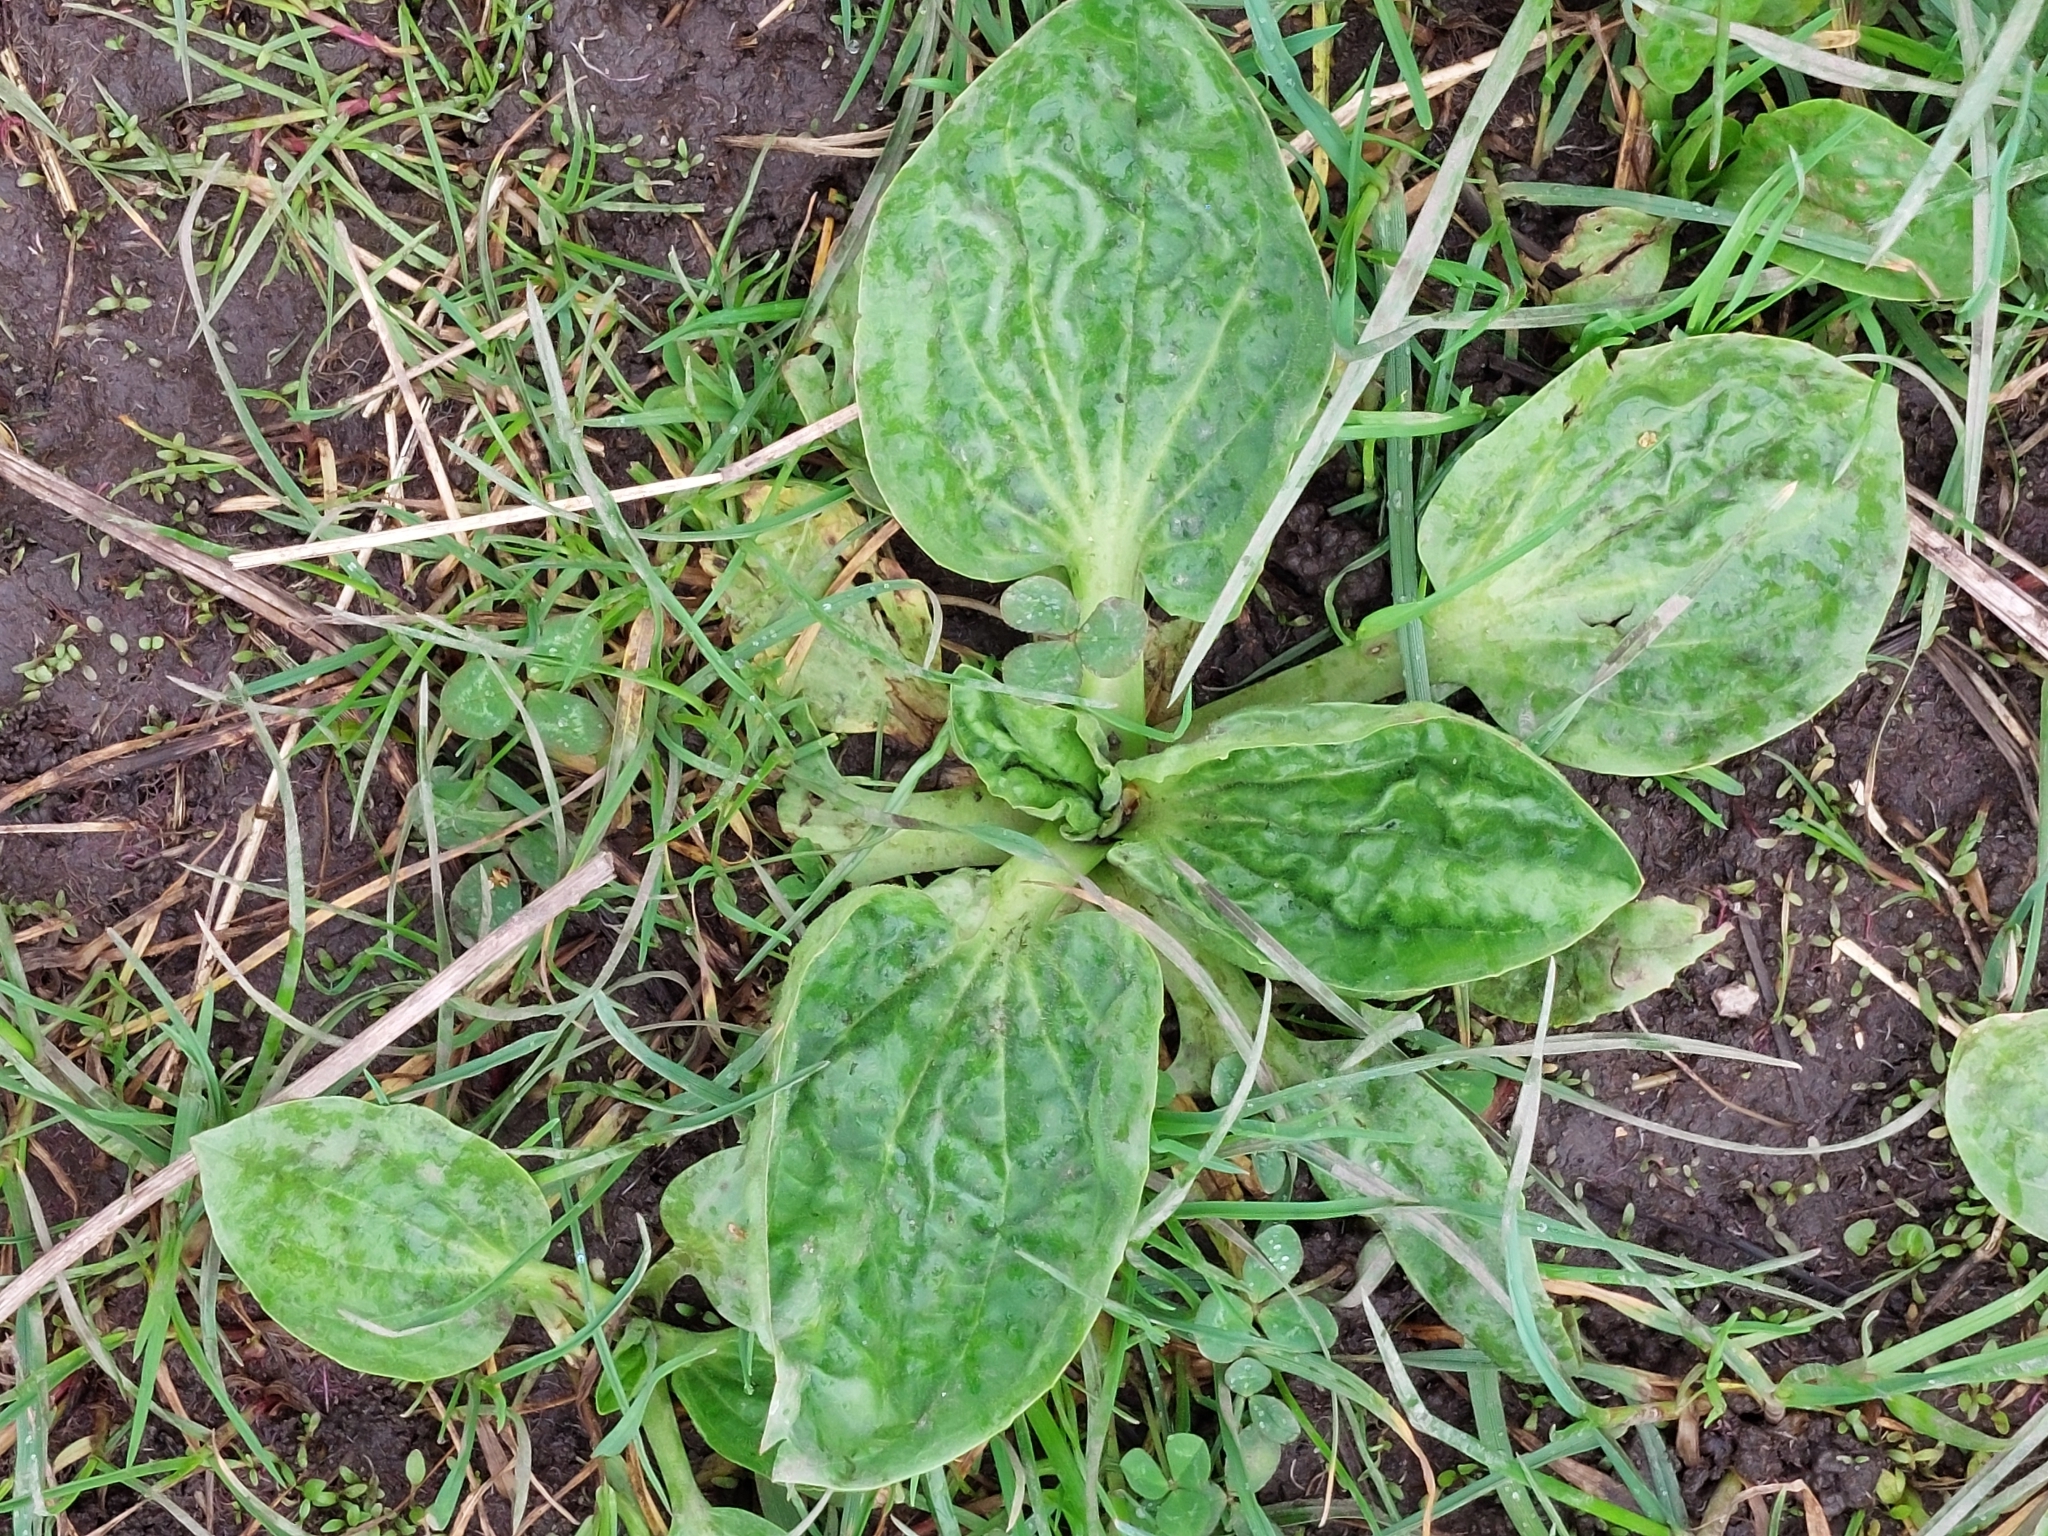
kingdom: Plantae
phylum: Tracheophyta
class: Magnoliopsida
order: Lamiales
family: Plantaginaceae
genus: Plantago
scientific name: Plantago major
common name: Common plantain
